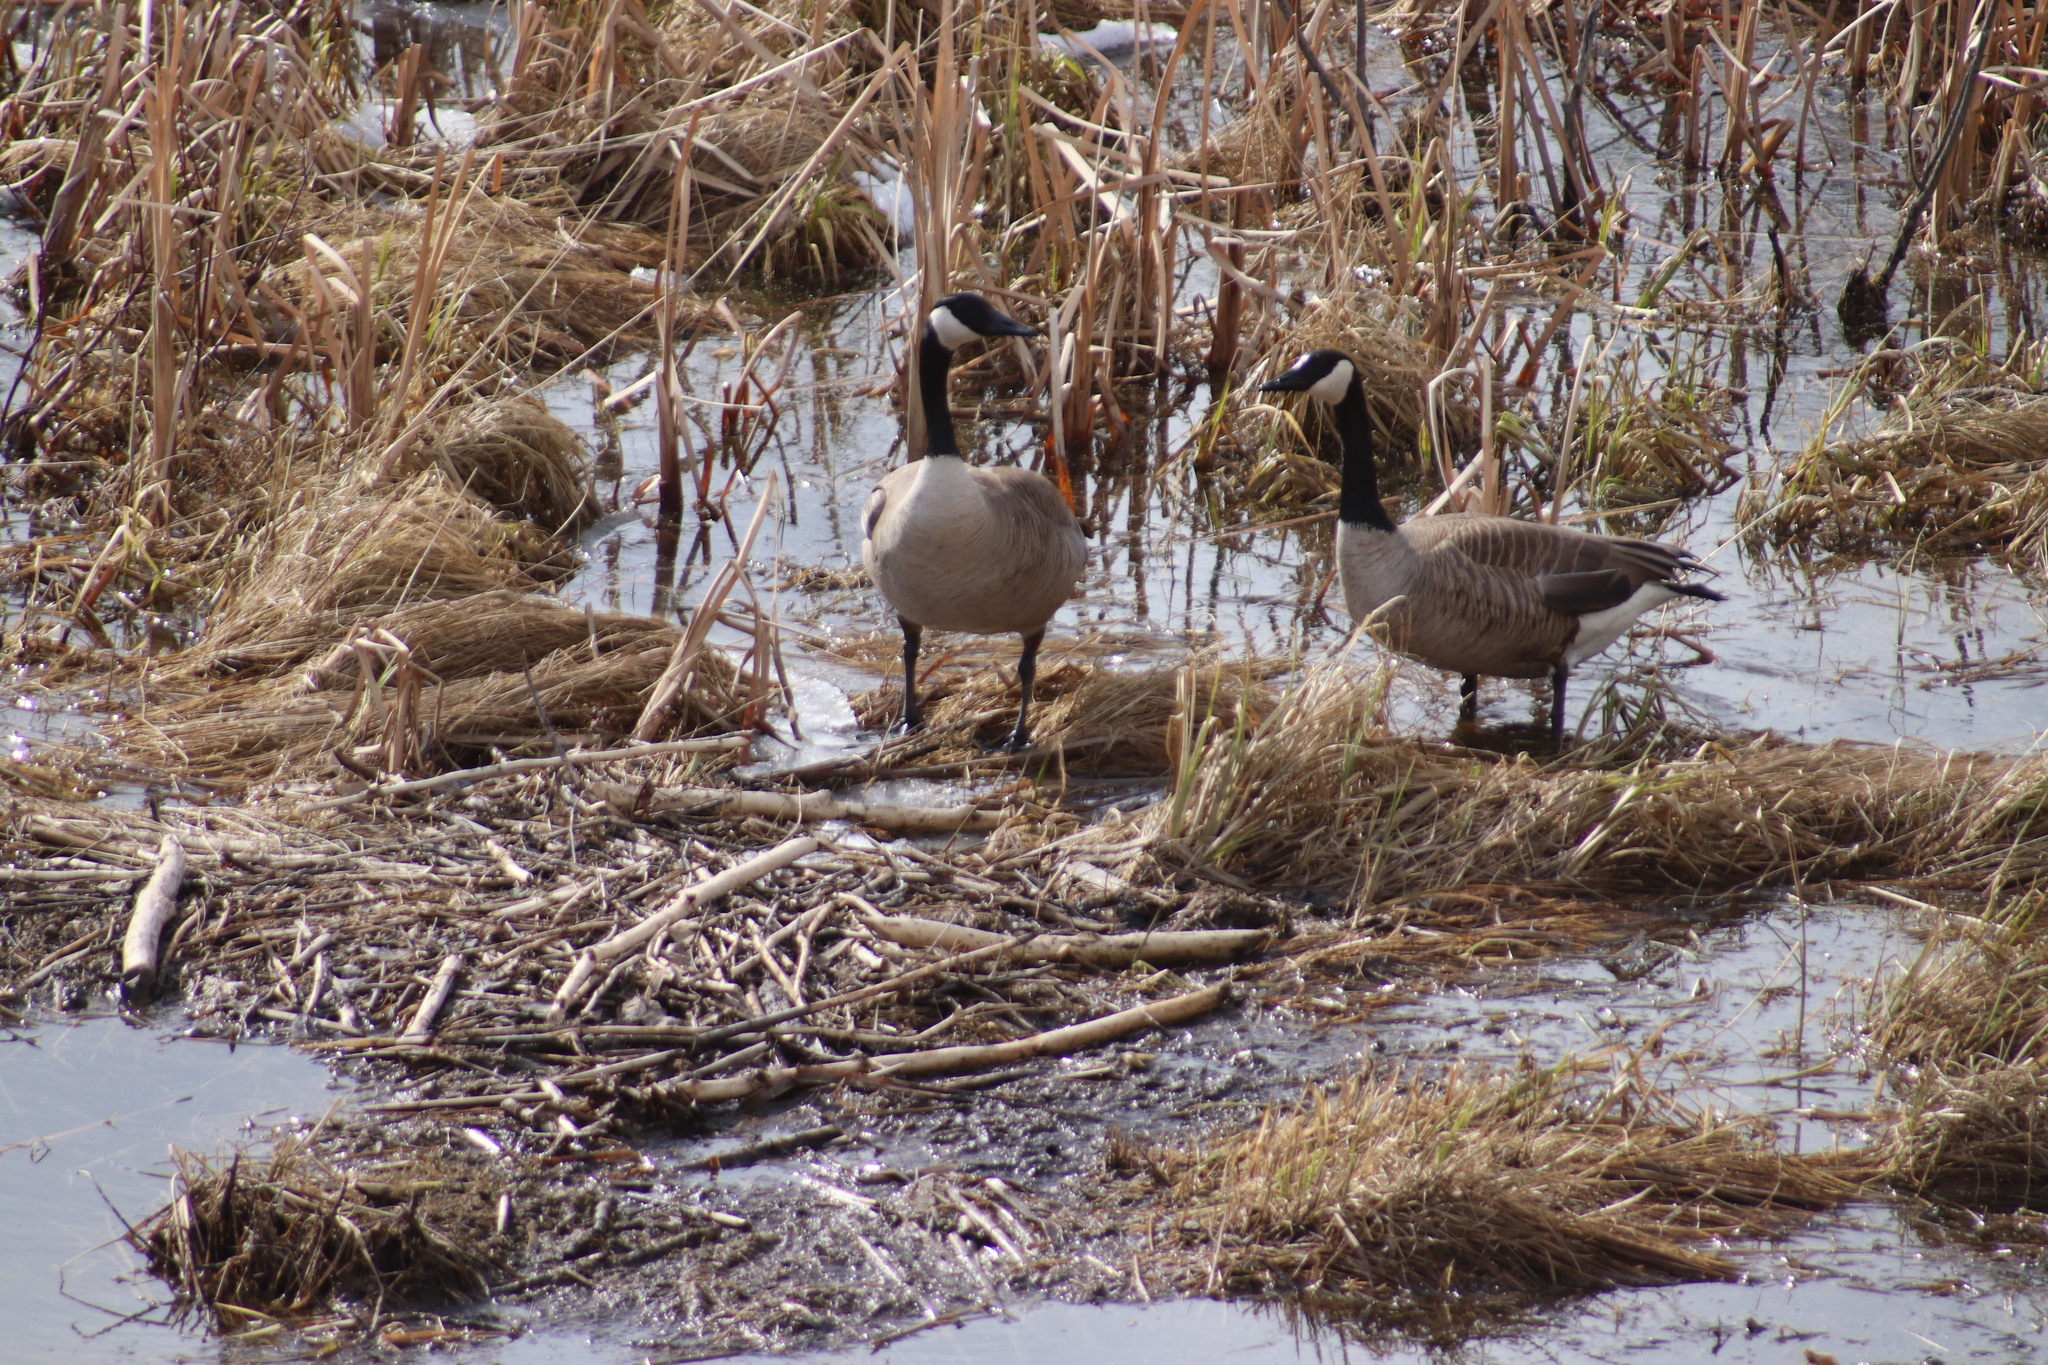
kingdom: Animalia
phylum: Chordata
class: Aves
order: Anseriformes
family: Anatidae
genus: Branta
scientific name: Branta canadensis
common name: Canada goose
